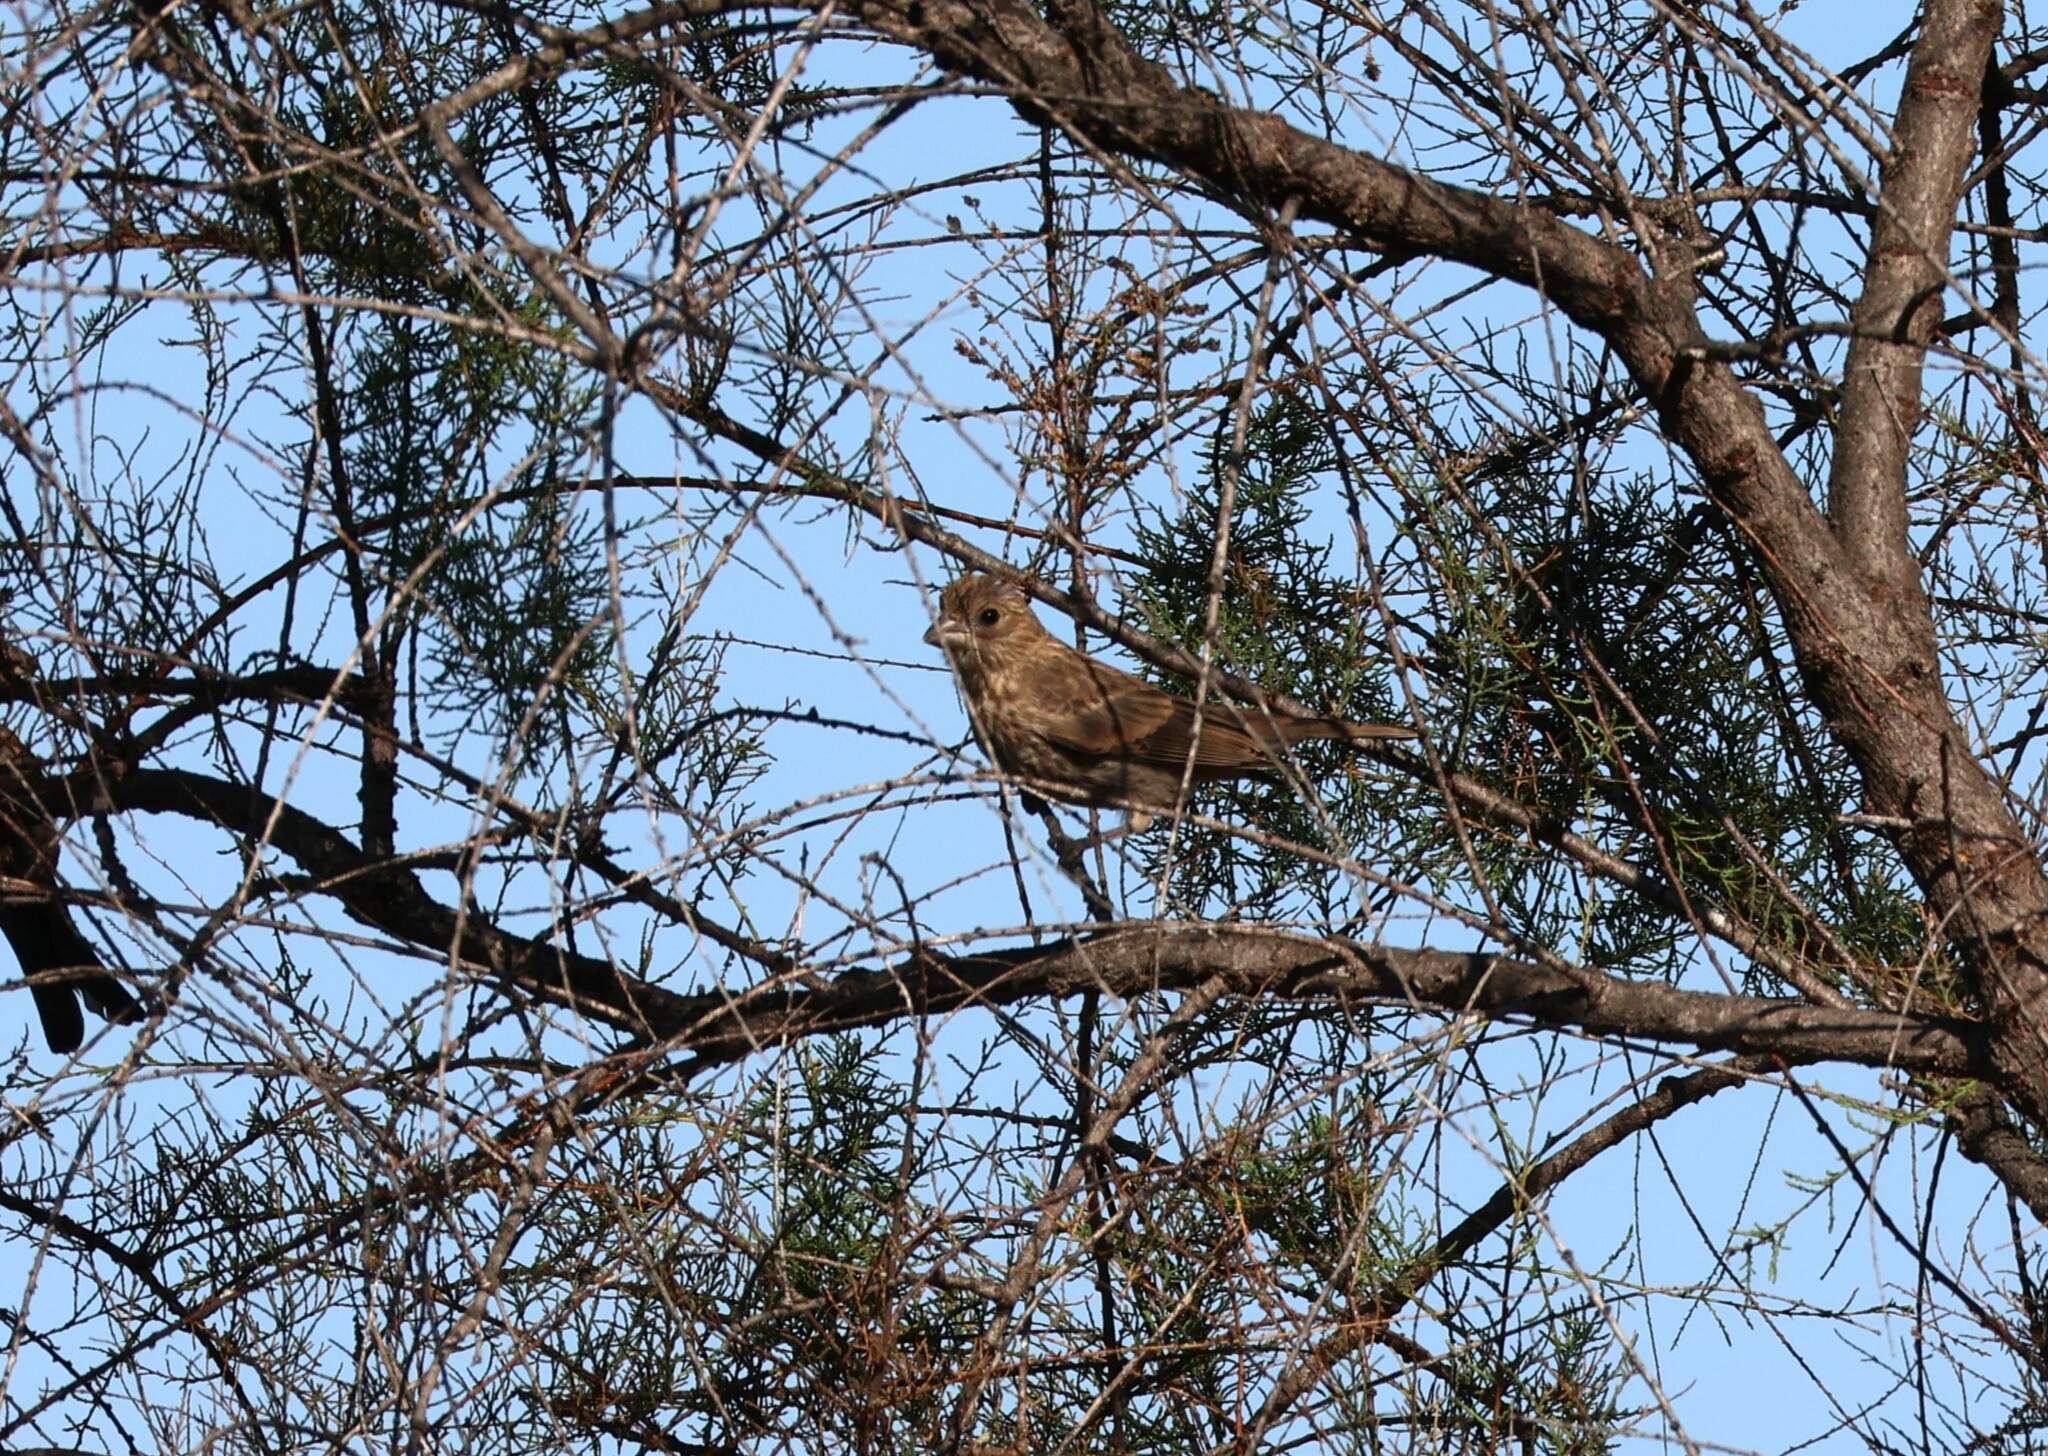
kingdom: Animalia
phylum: Chordata
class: Aves
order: Passeriformes
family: Fringillidae
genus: Haemorhous
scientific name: Haemorhous mexicanus
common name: House finch
